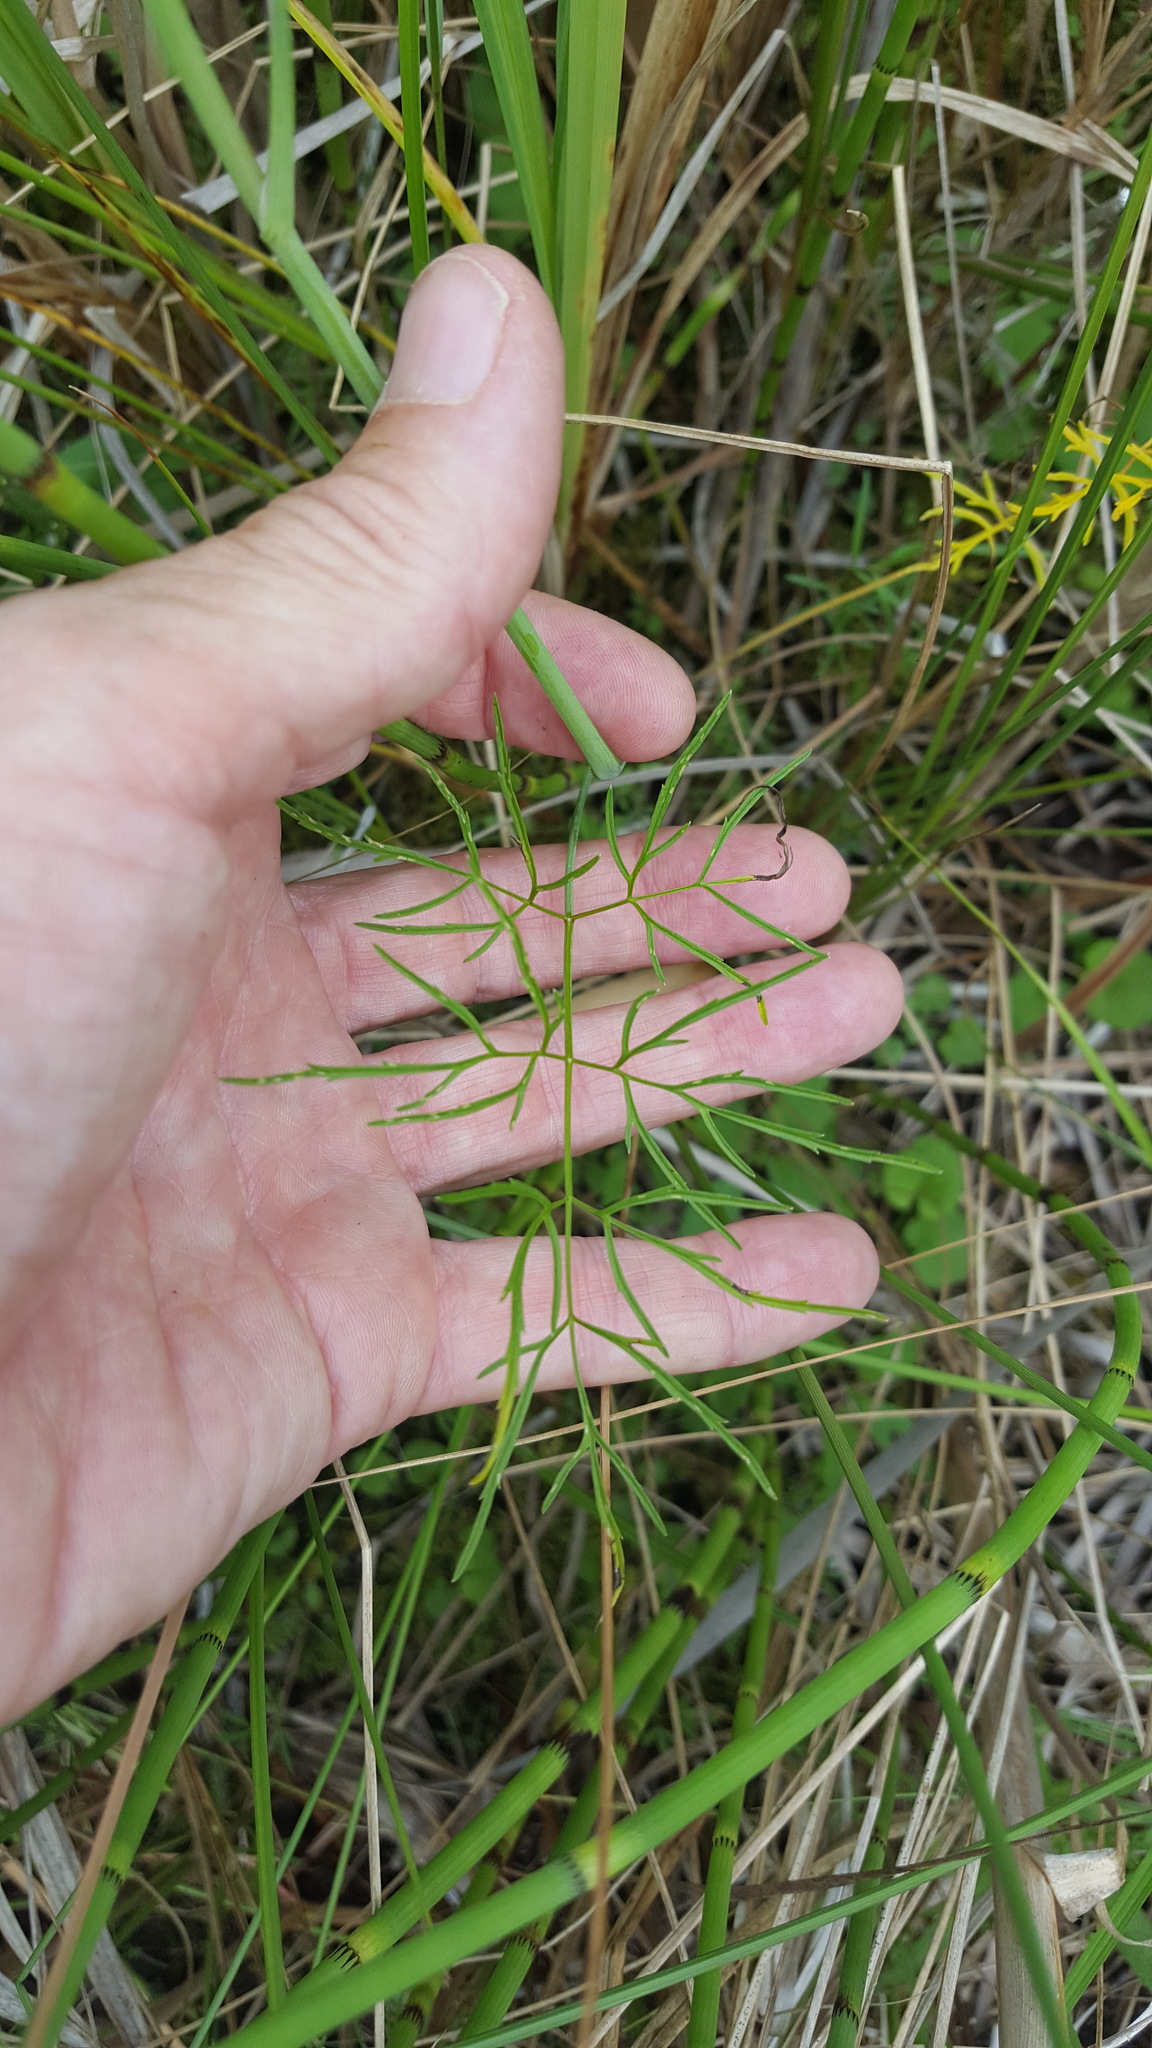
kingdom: Plantae
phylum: Tracheophyta
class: Magnoliopsida
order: Apiales
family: Apiaceae
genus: Cicuta
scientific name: Cicuta bulbifera
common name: Bulb-bearing water-hemlock
